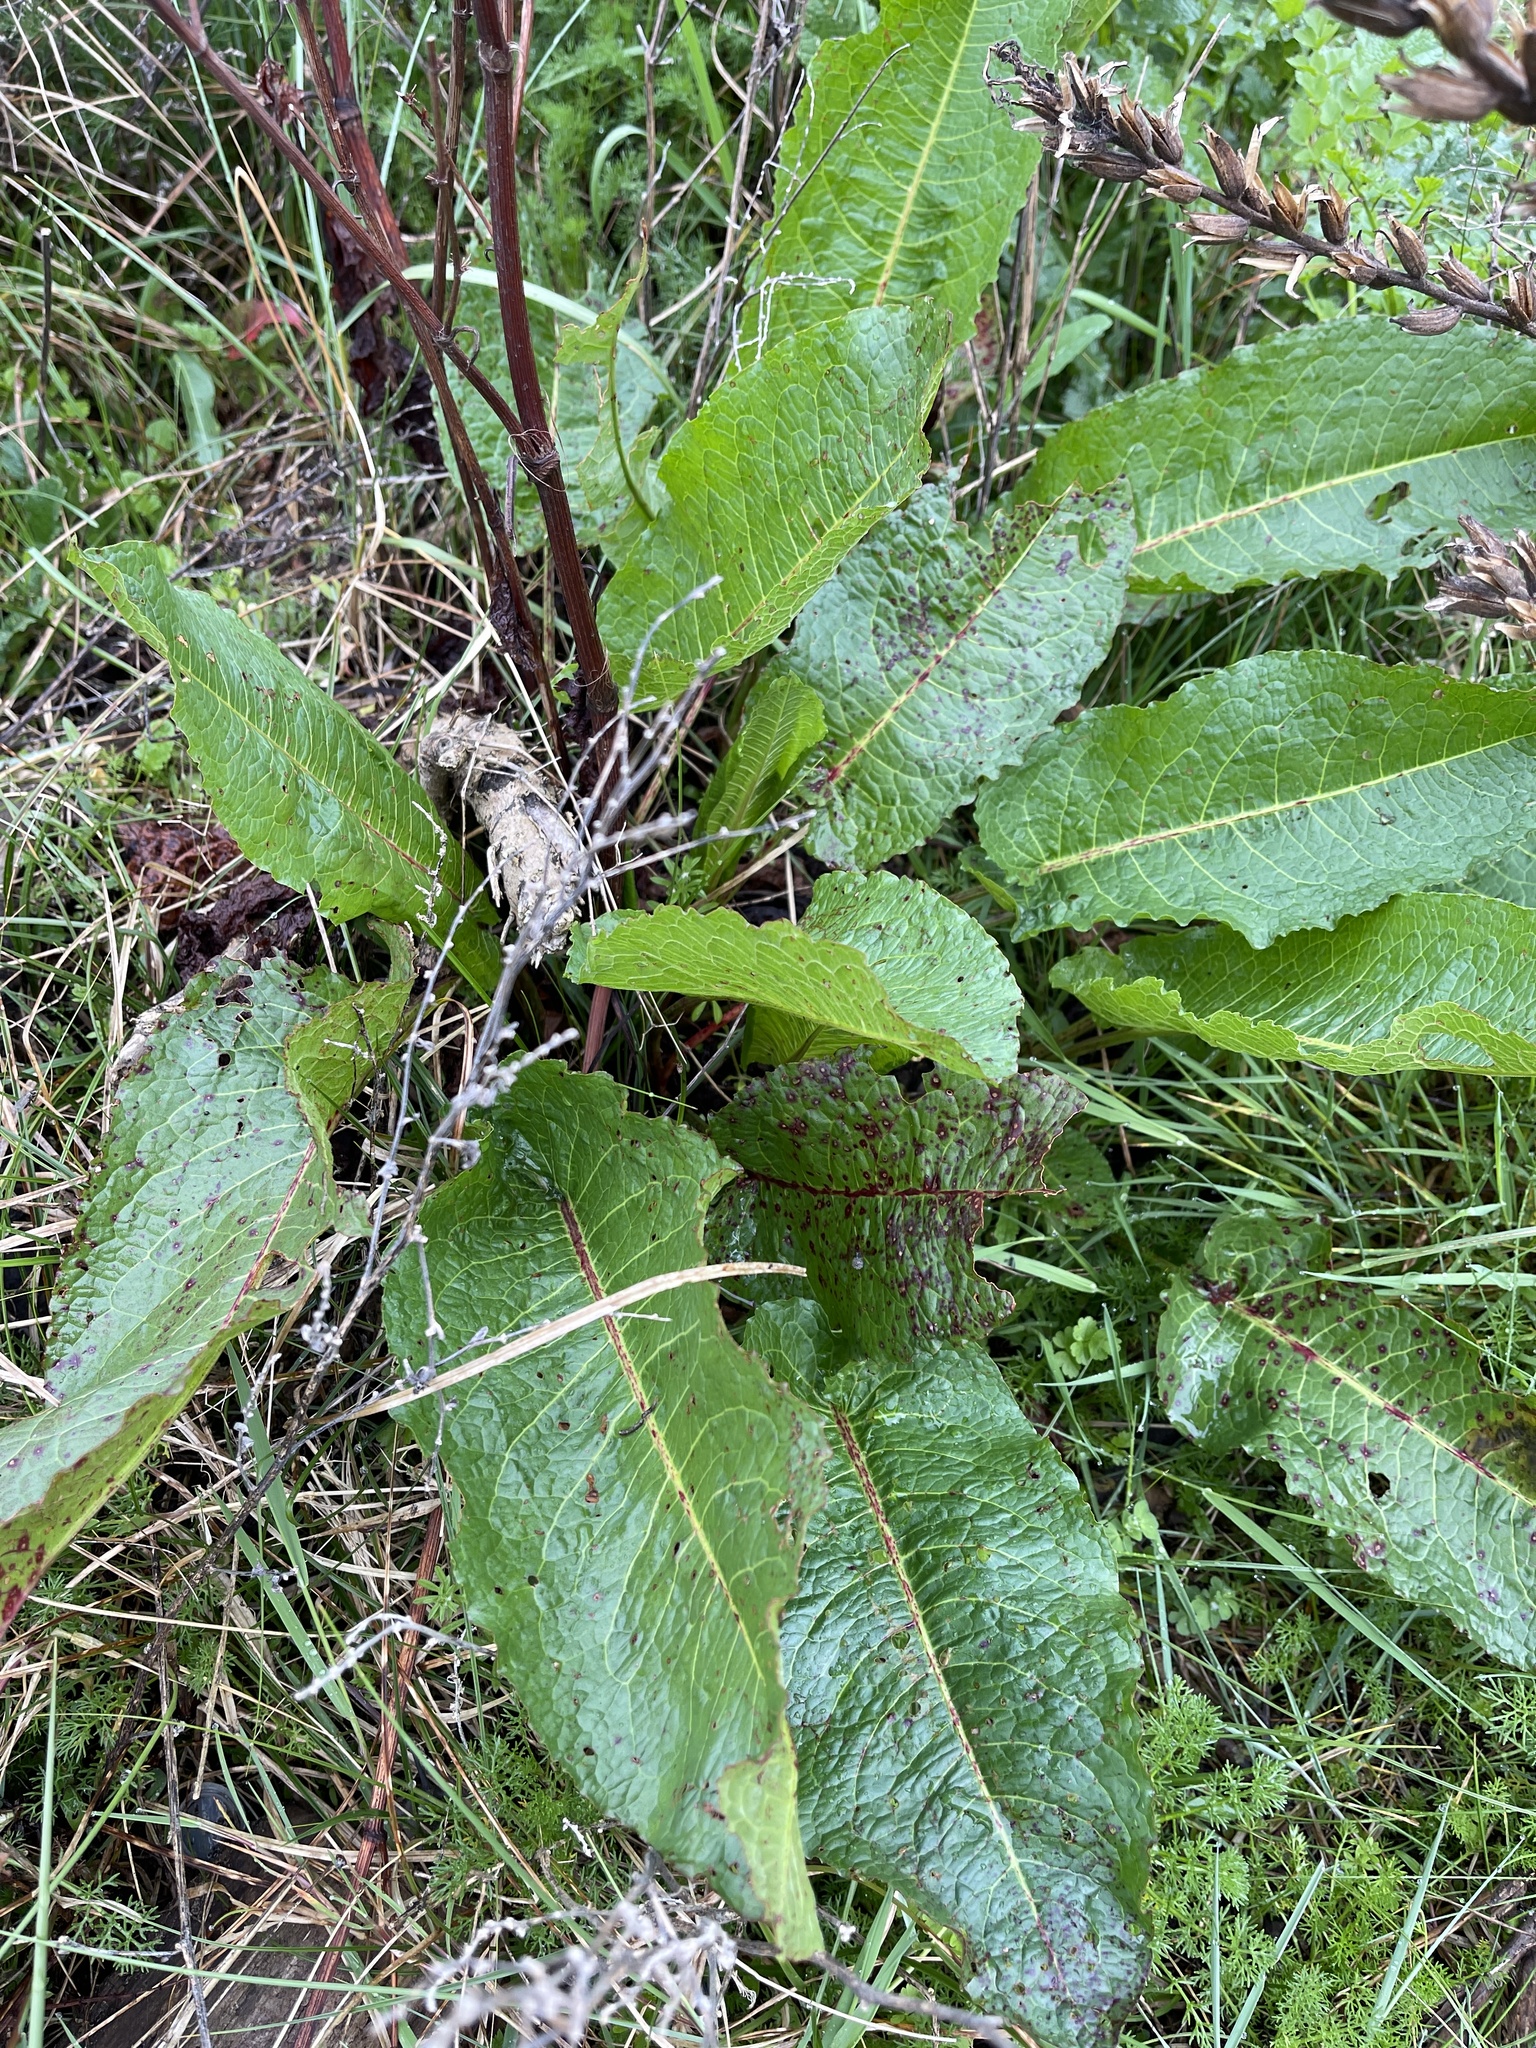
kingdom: Plantae
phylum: Tracheophyta
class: Magnoliopsida
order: Caryophyllales
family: Polygonaceae
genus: Rumex
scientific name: Rumex obtusifolius
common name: Bitter dock
